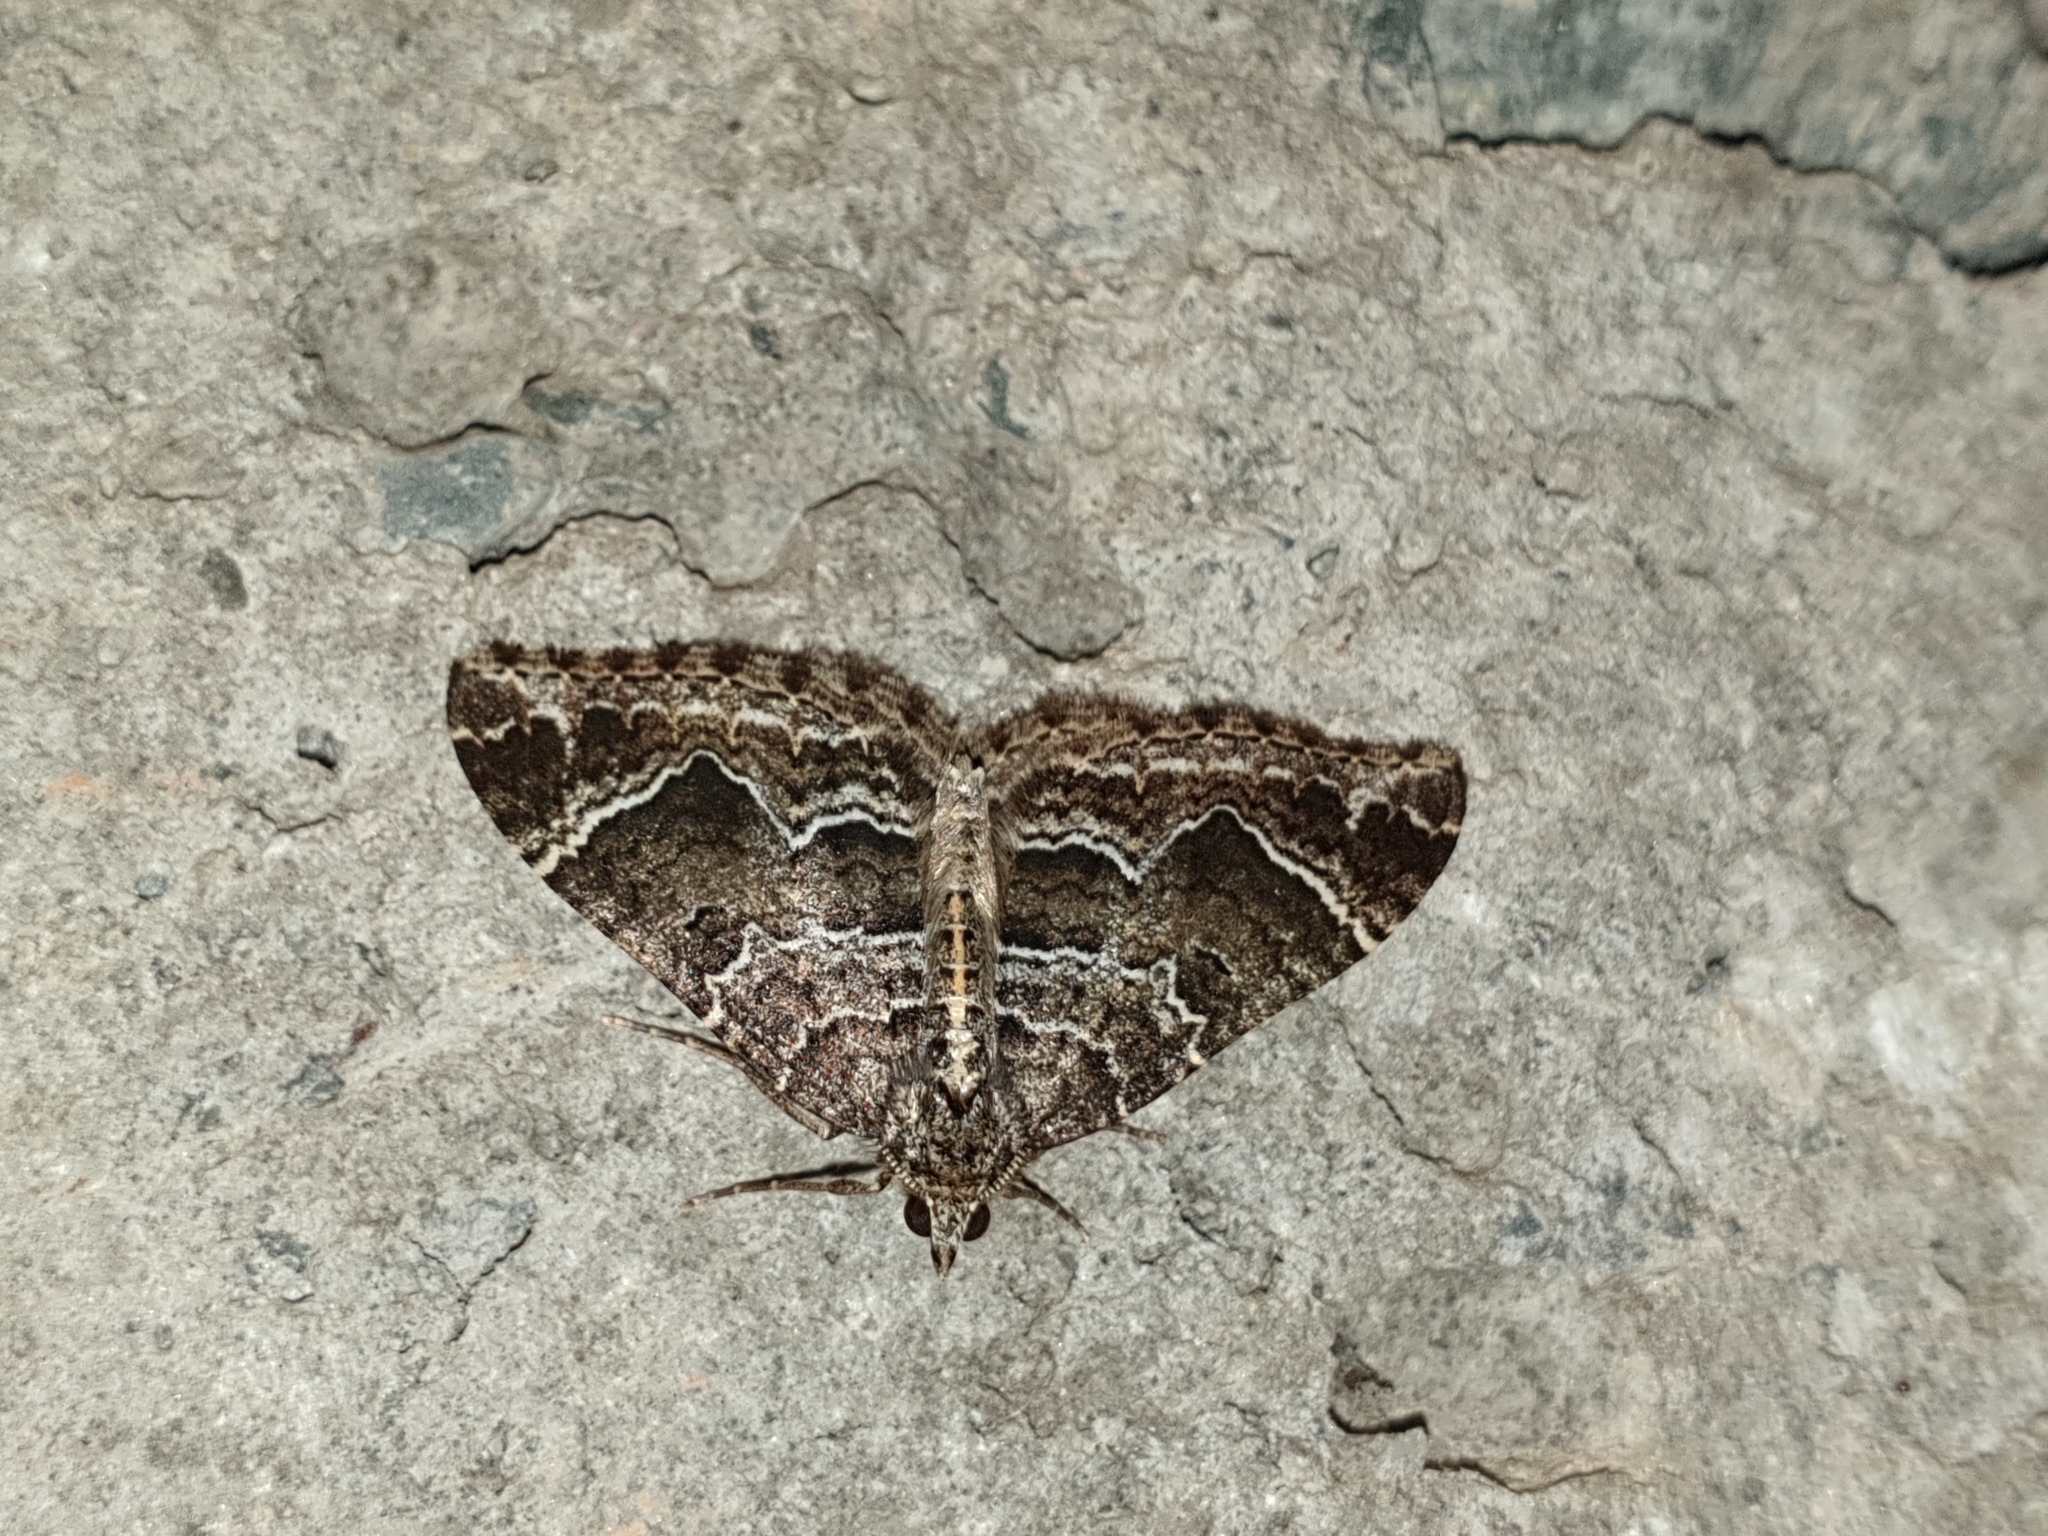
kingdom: Animalia
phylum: Arthropoda
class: Insecta
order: Lepidoptera
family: Geometridae
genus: Colostygia
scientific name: Colostygia albigirata
